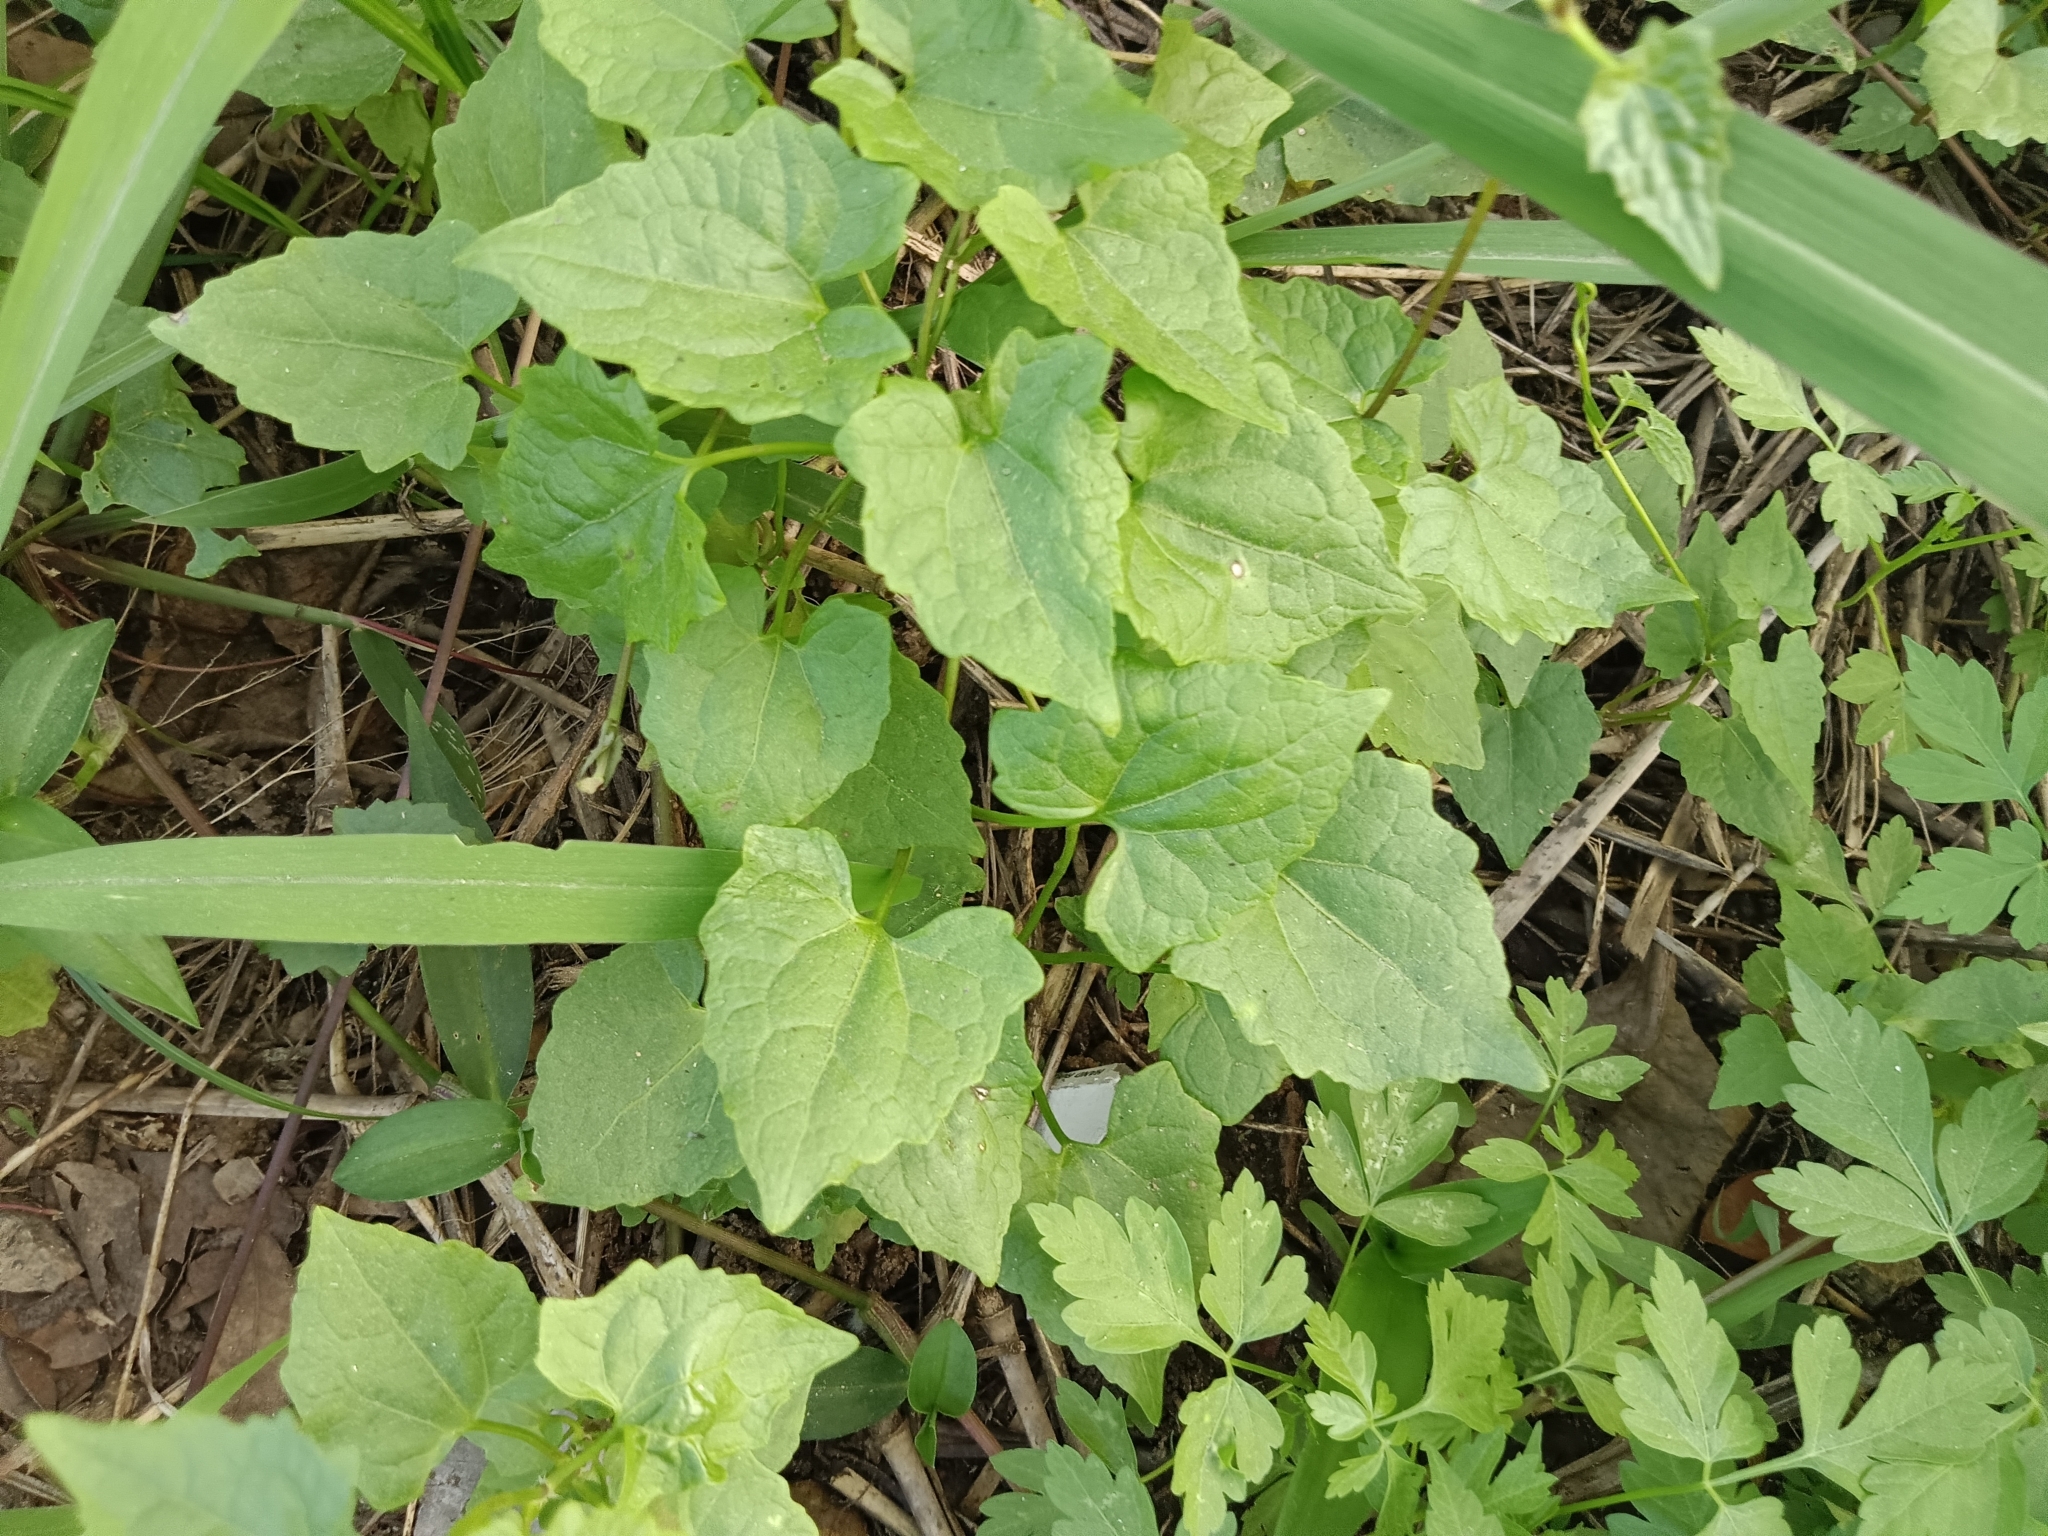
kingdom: Plantae
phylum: Tracheophyta
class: Magnoliopsida
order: Asterales
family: Asteraceae
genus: Mikania
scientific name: Mikania micrantha
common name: Mile-a-minute
